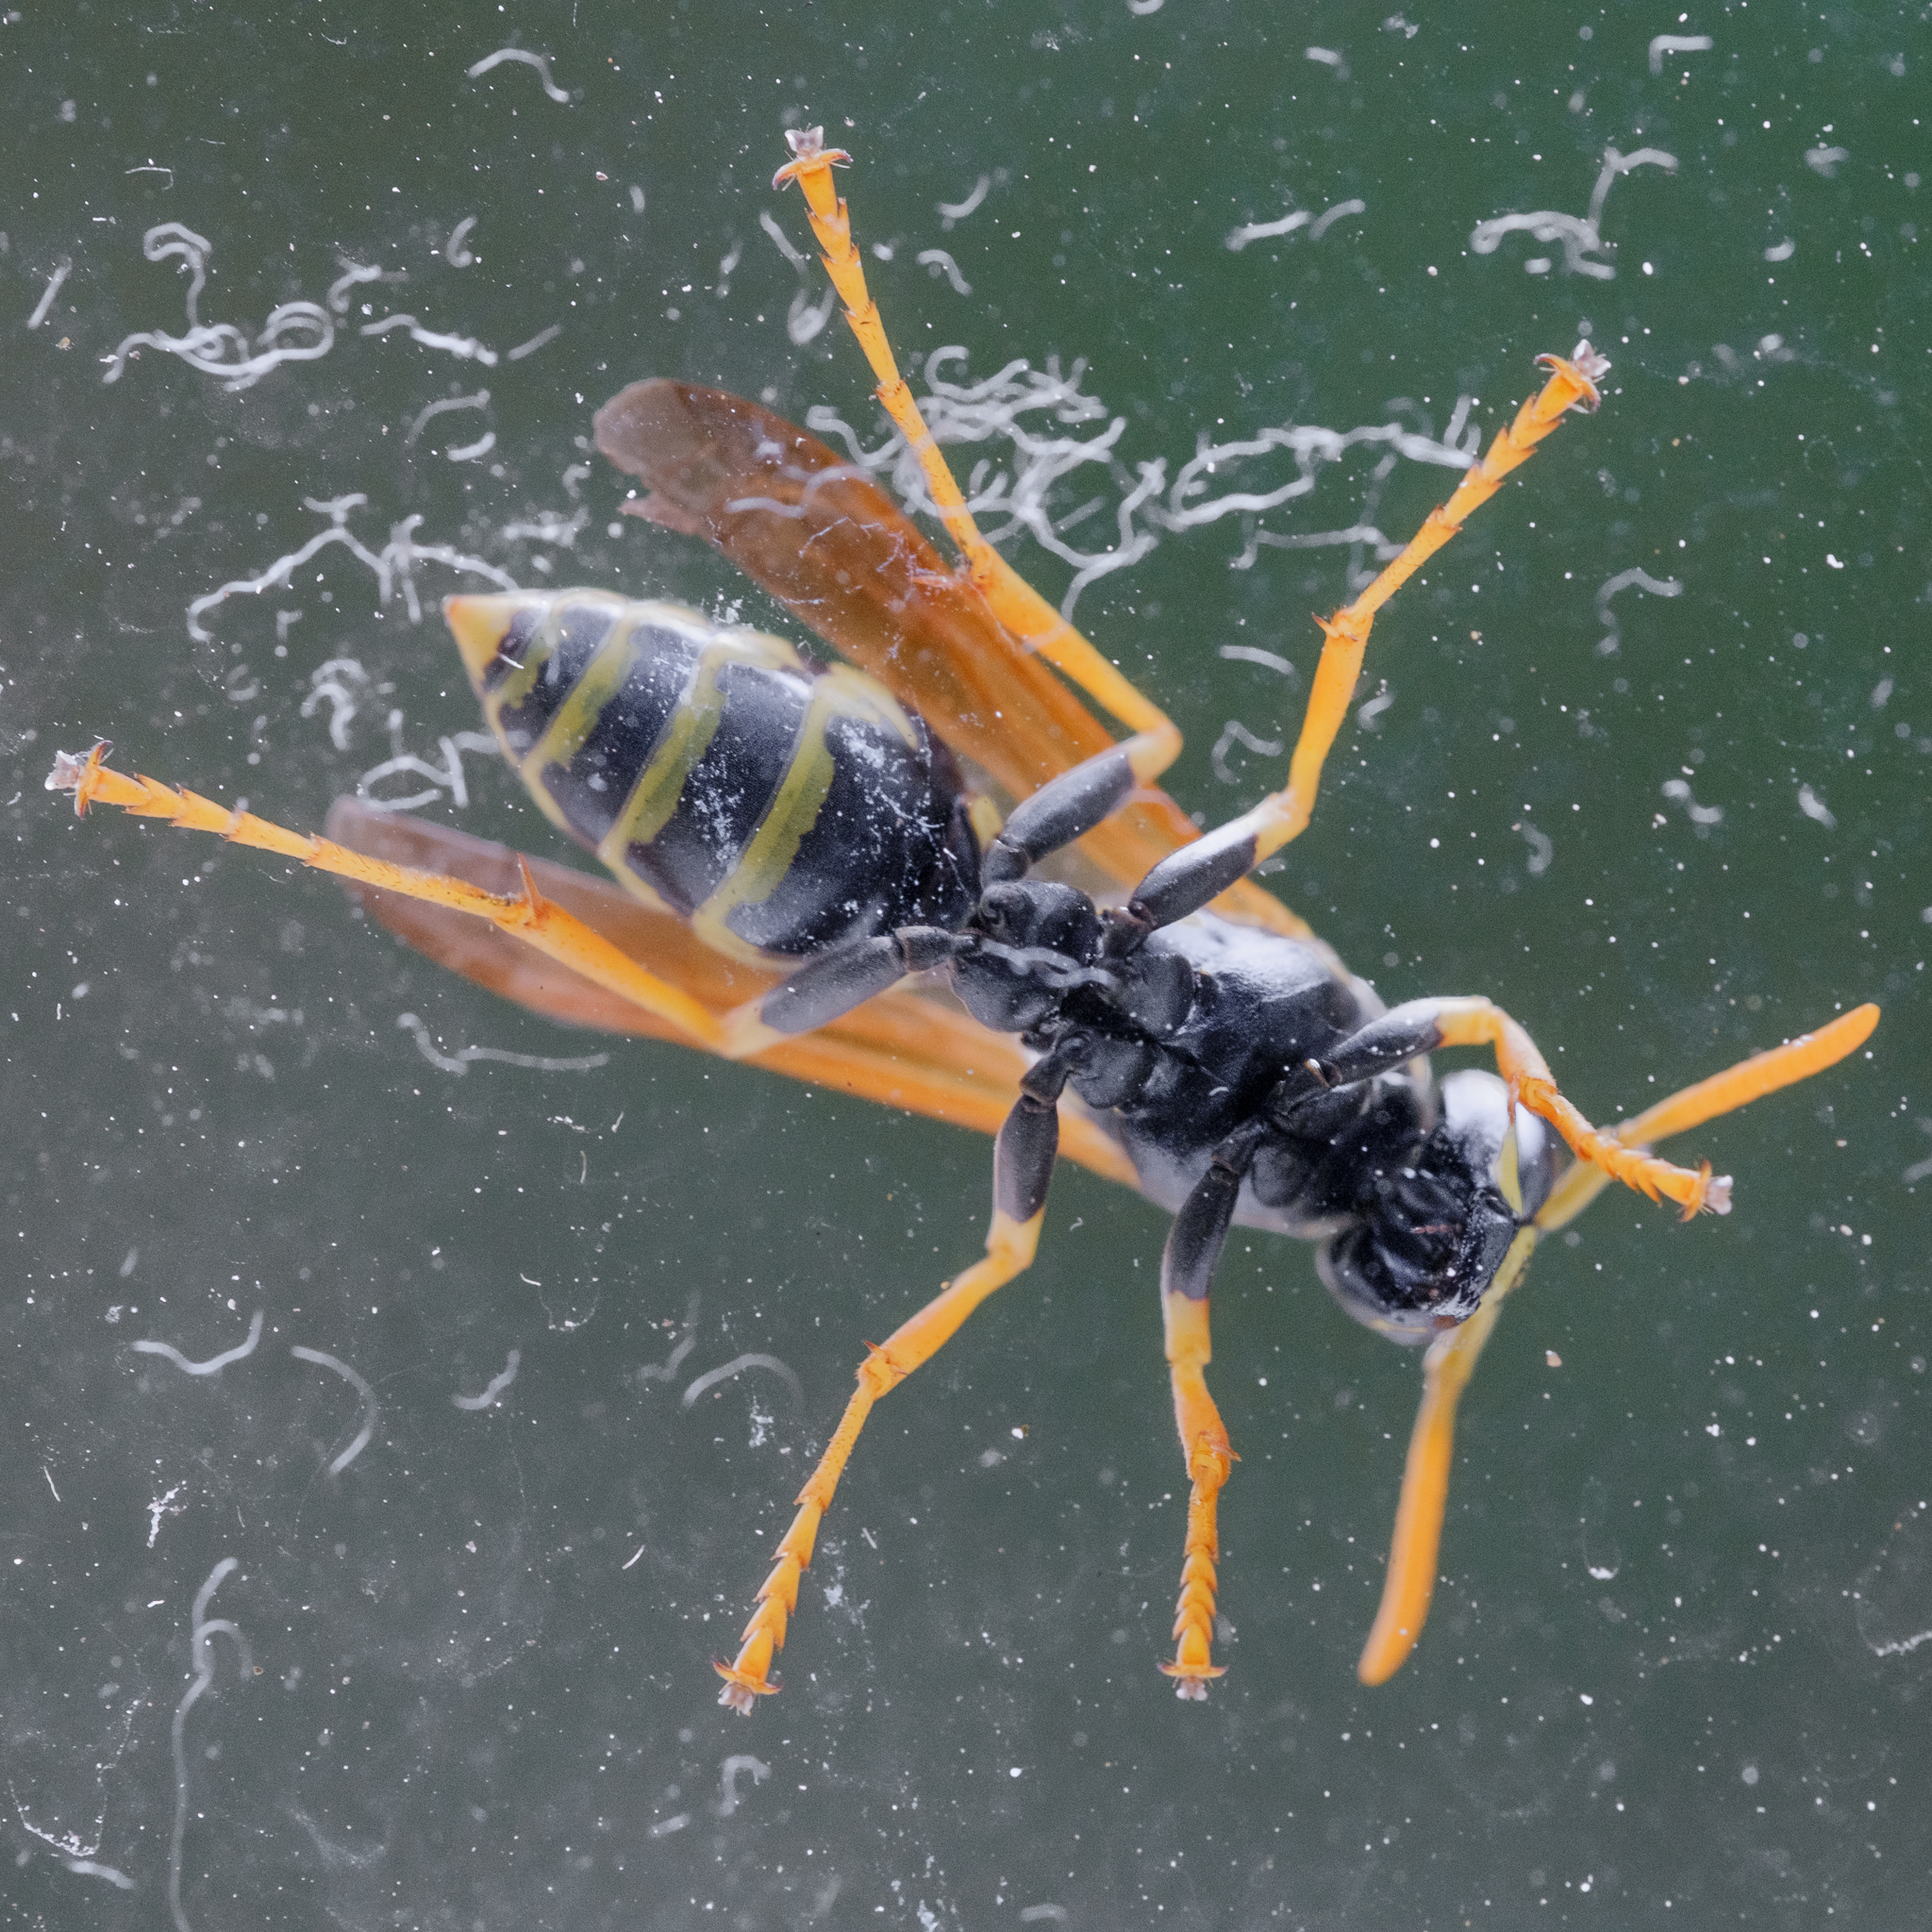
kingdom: Animalia
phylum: Arthropoda
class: Insecta
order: Hymenoptera
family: Eumenidae
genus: Polistes
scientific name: Polistes dominula
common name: Paper wasp
